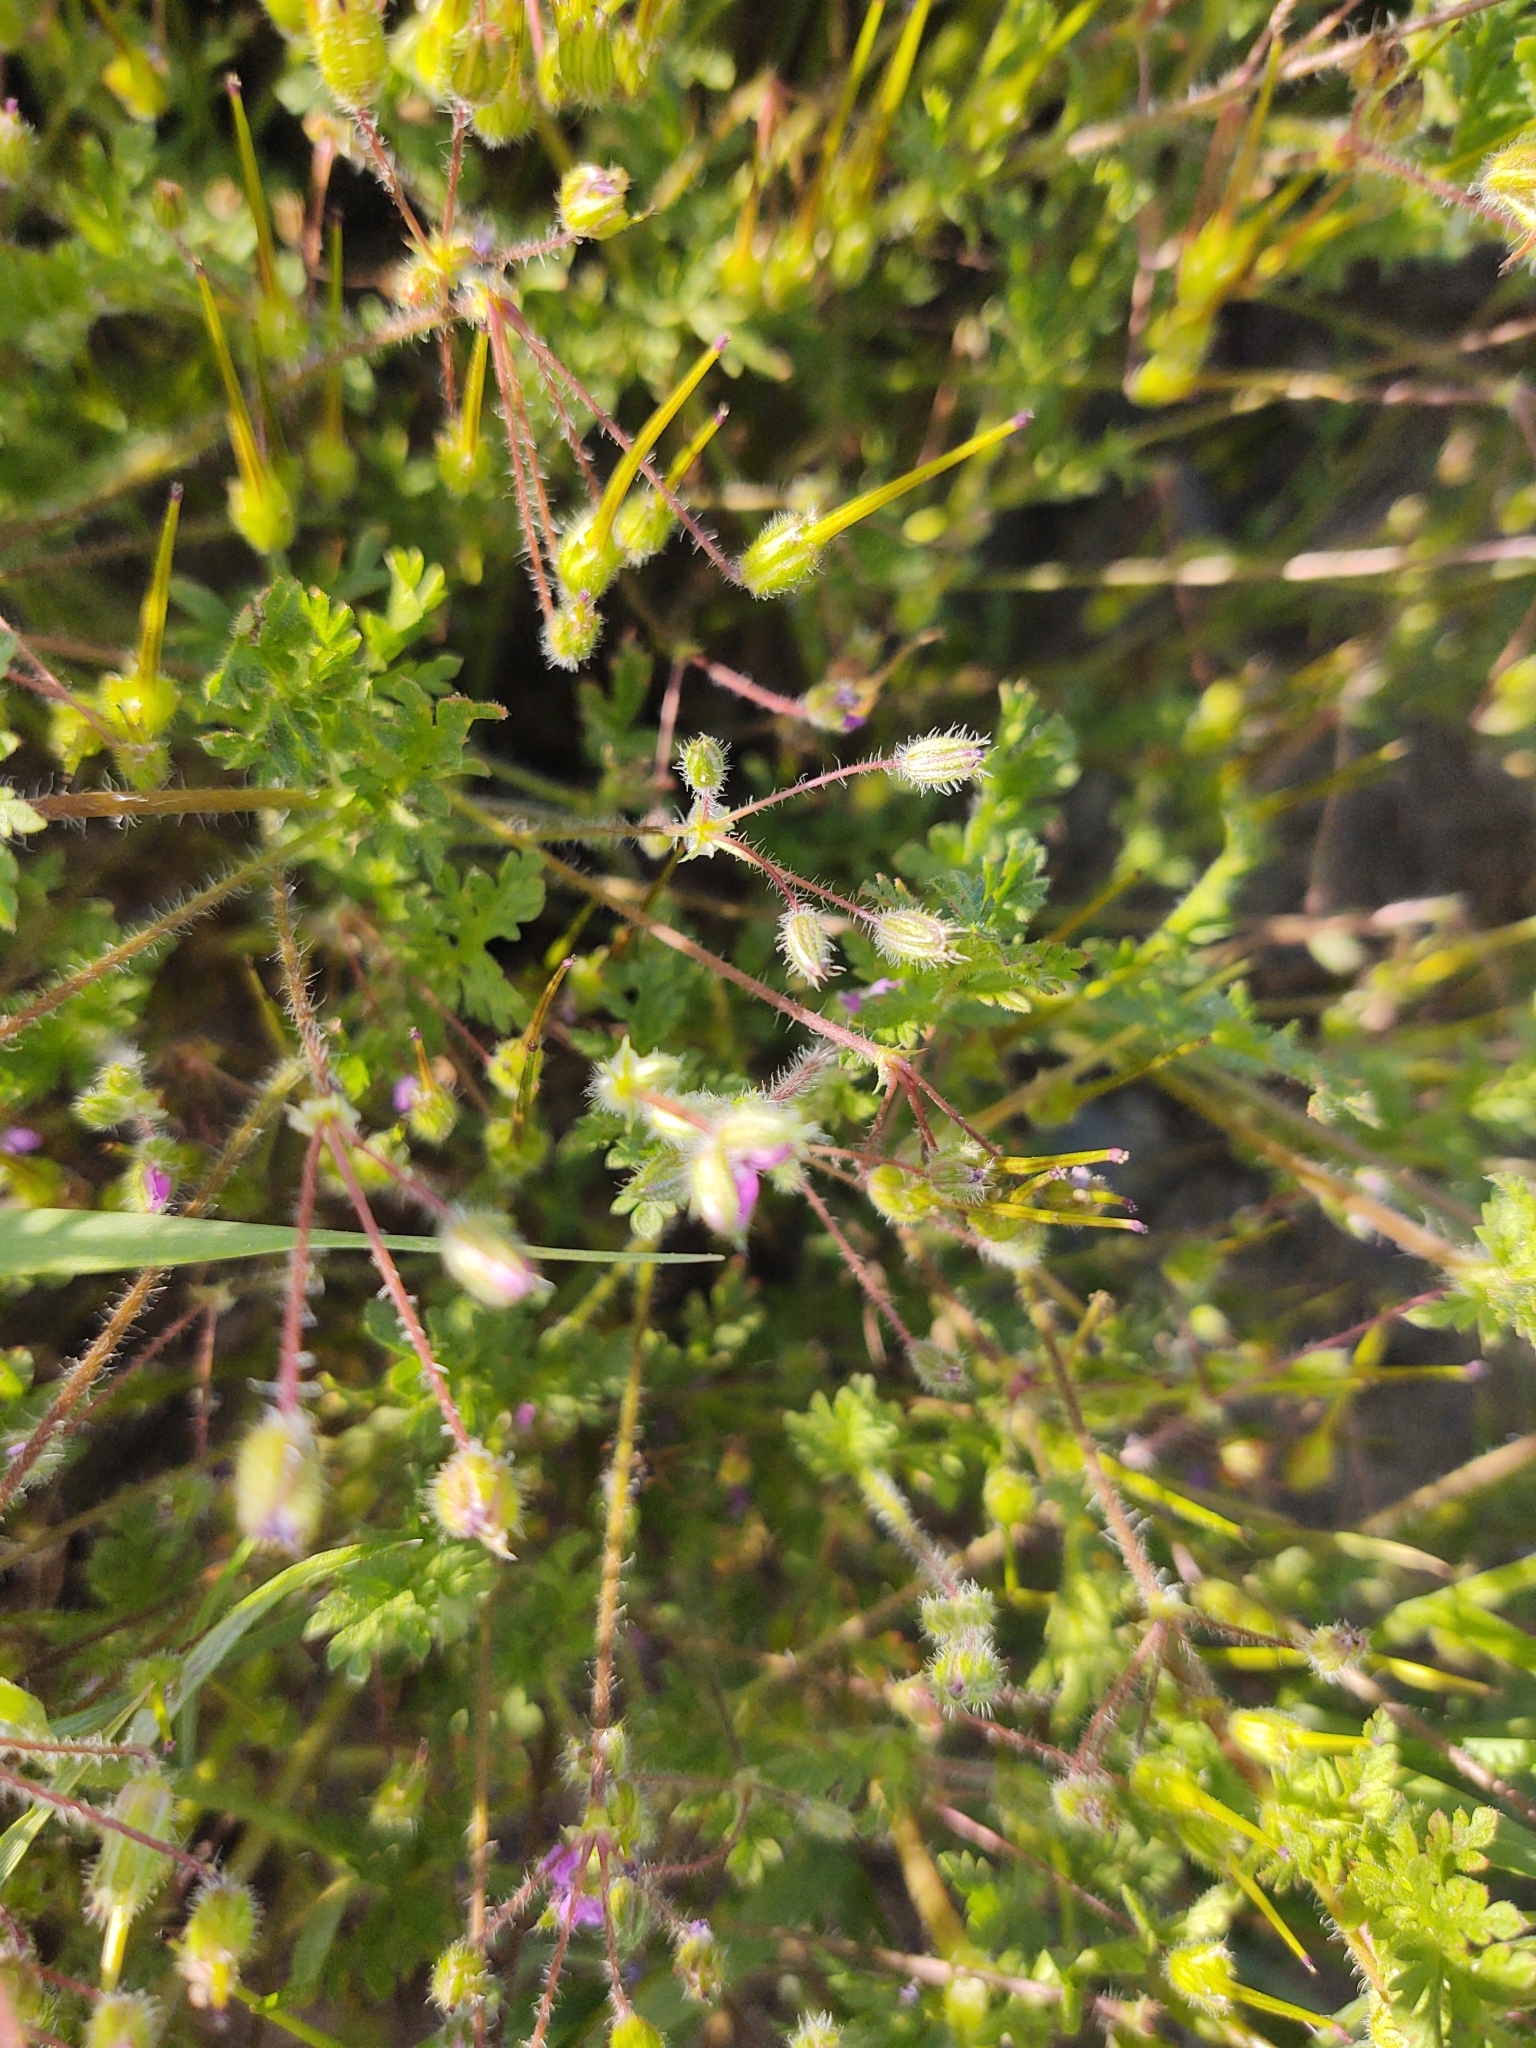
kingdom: Plantae
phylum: Tracheophyta
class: Magnoliopsida
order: Geraniales
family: Geraniaceae
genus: Erodium
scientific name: Erodium cicutarium
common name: Common stork's-bill
